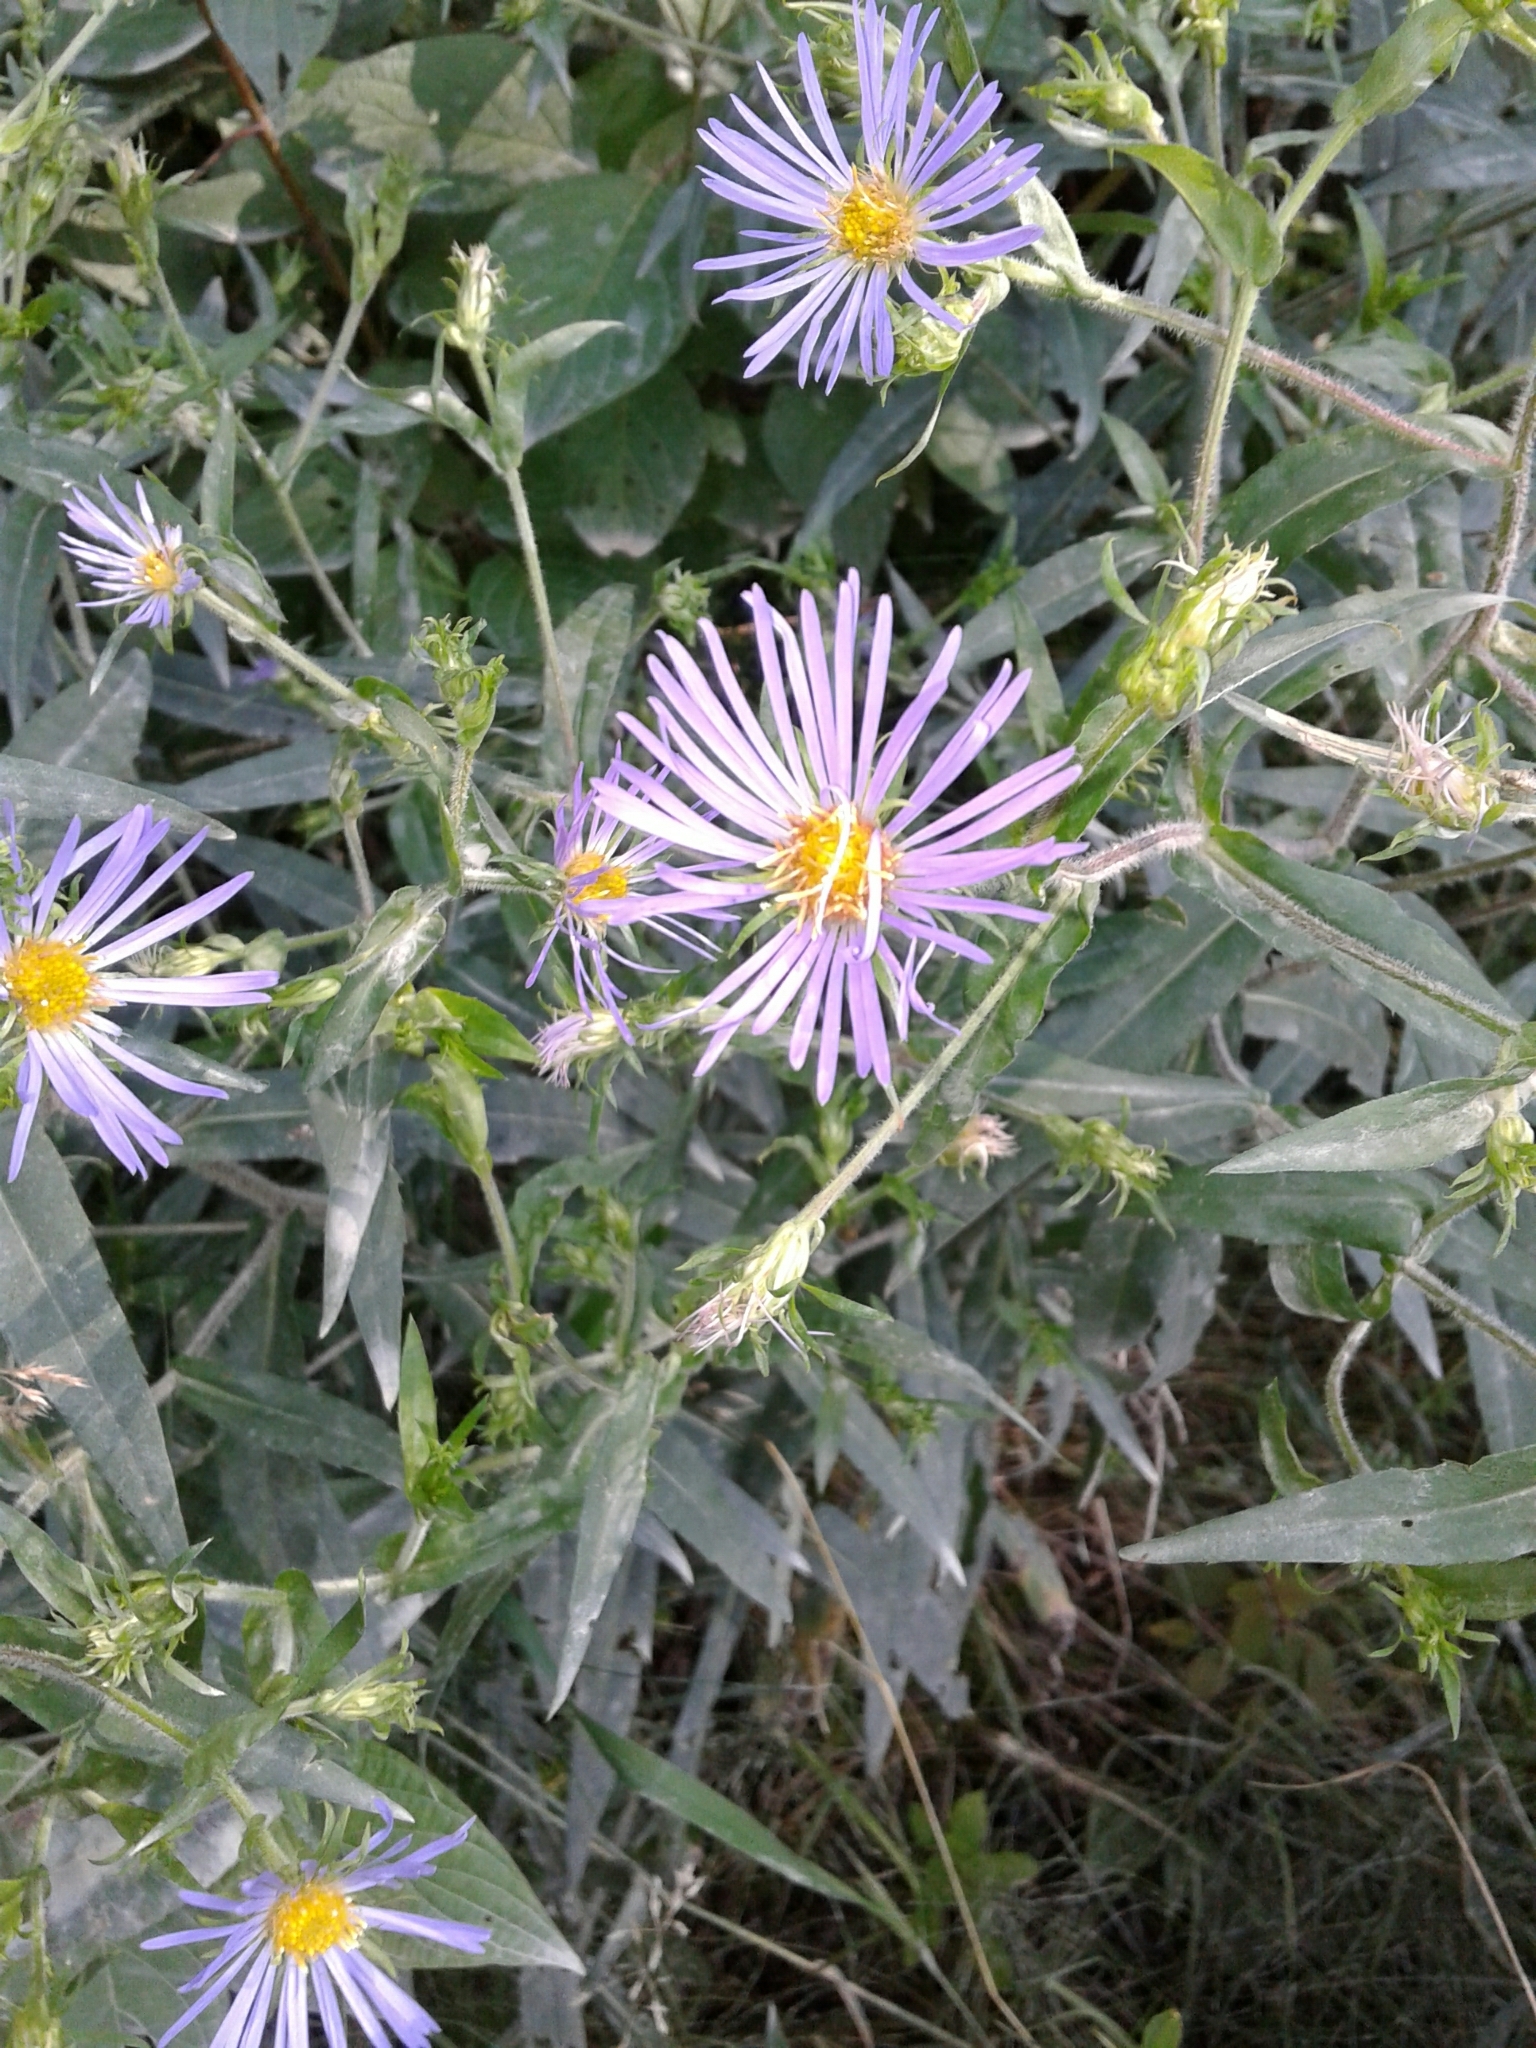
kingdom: Plantae
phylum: Tracheophyta
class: Magnoliopsida
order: Asterales
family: Asteraceae
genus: Symphyotrichum
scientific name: Symphyotrichum puniceum
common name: Bog aster
